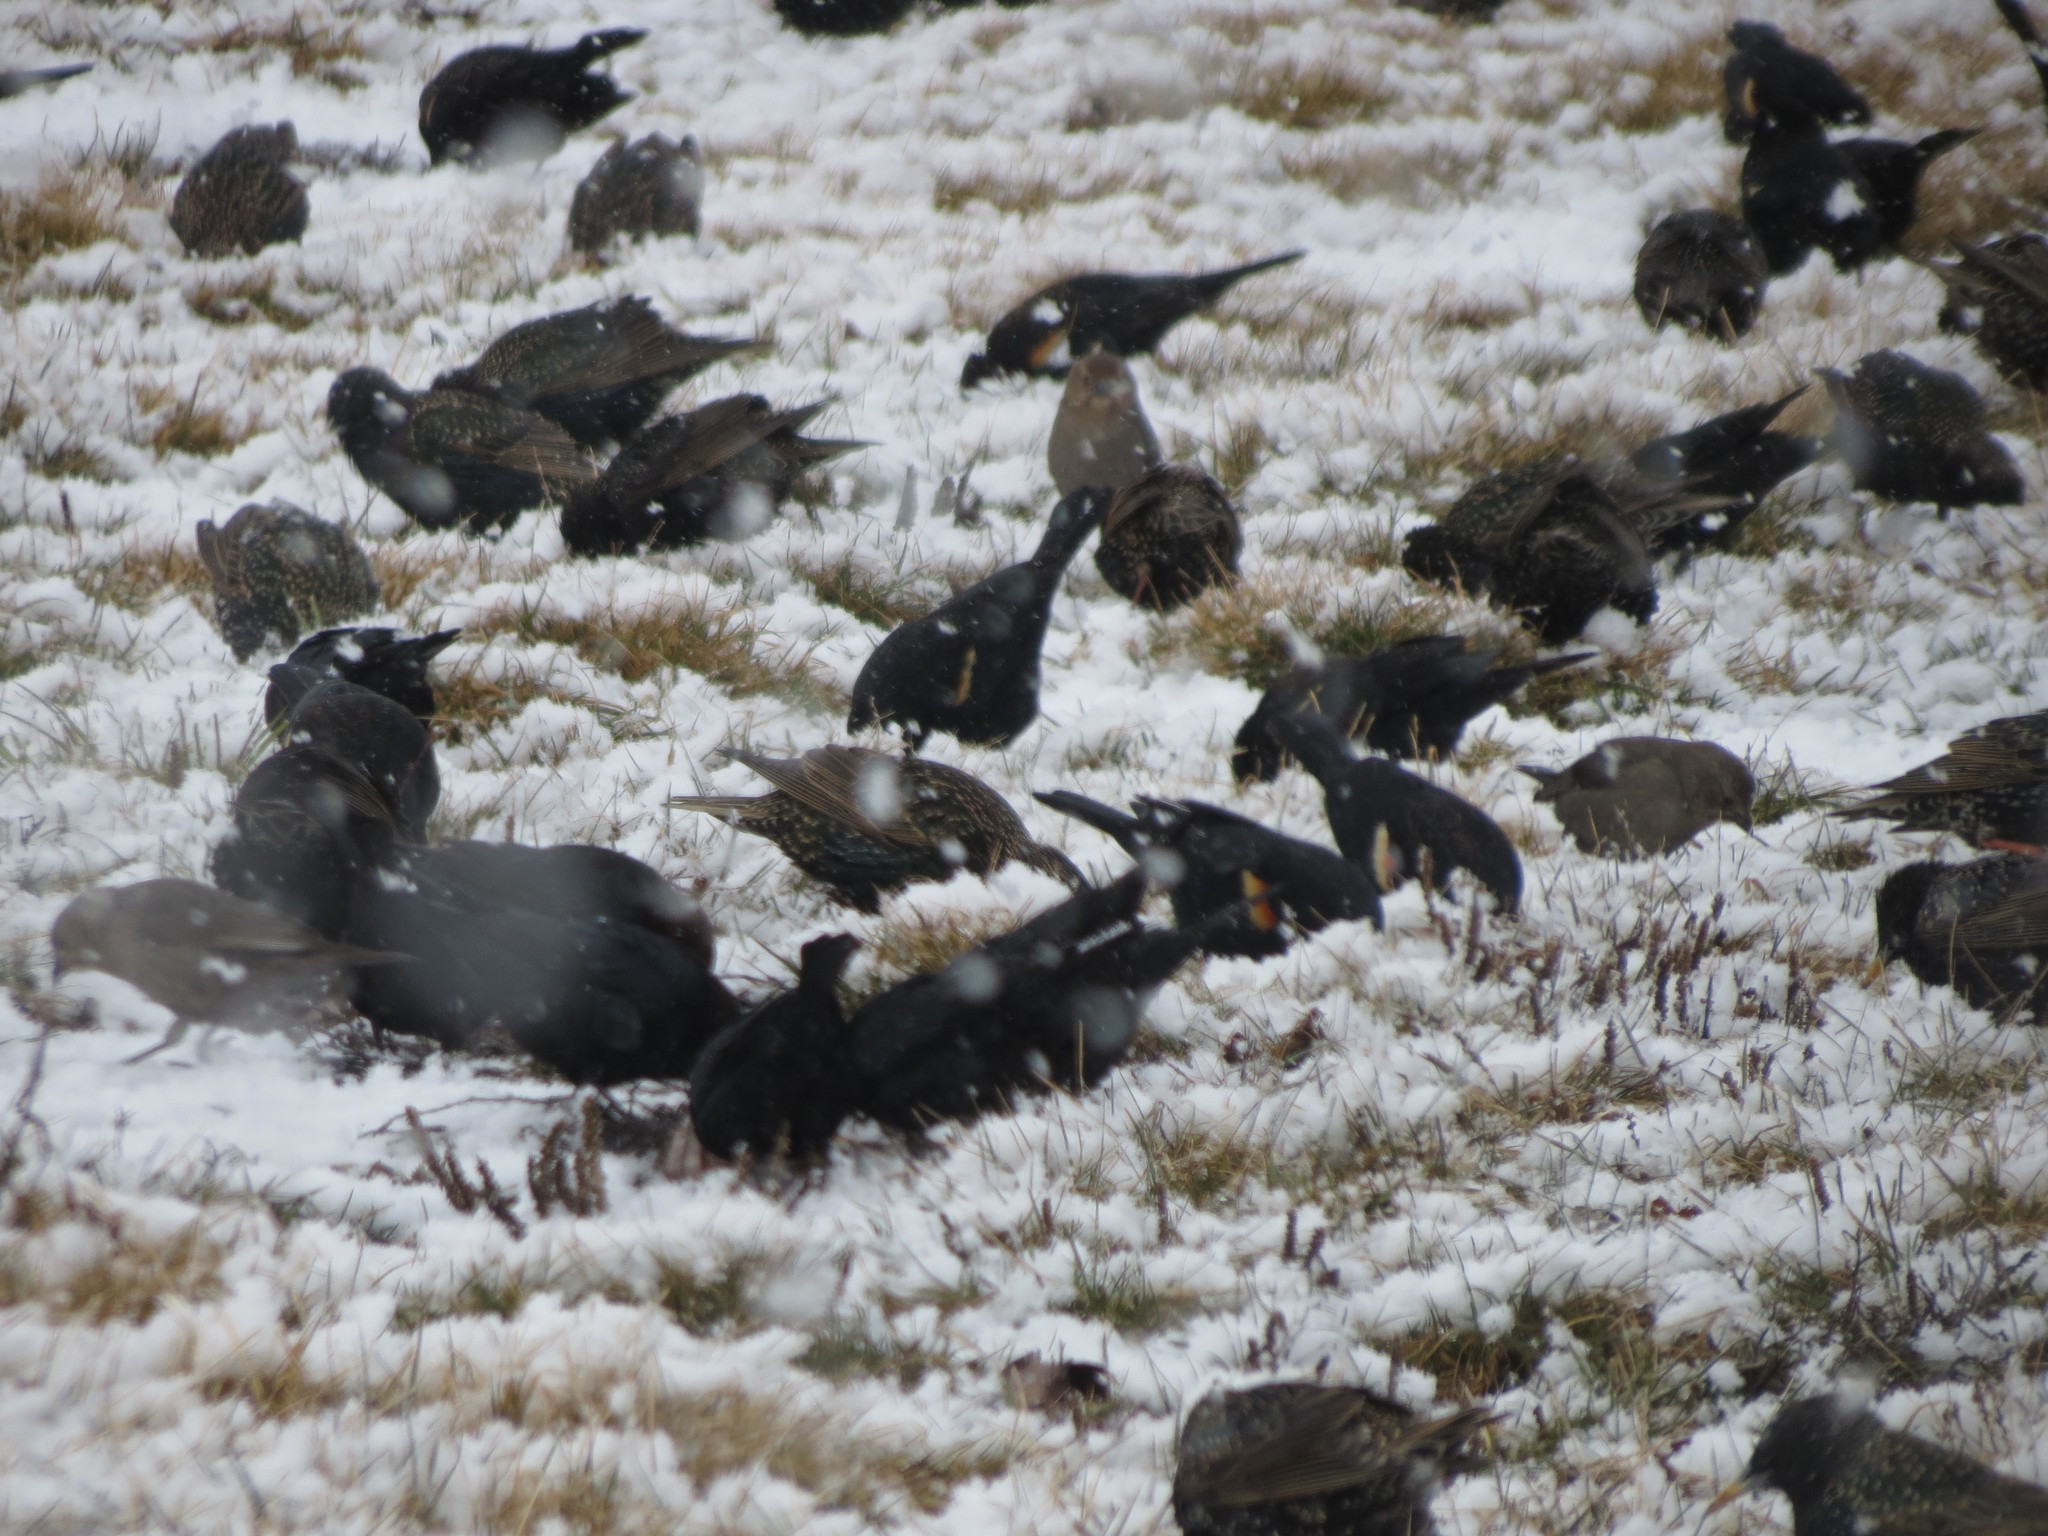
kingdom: Animalia
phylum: Chordata
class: Aves
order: Passeriformes
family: Icteridae
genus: Agelaius
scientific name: Agelaius phoeniceus
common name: Red-winged blackbird
